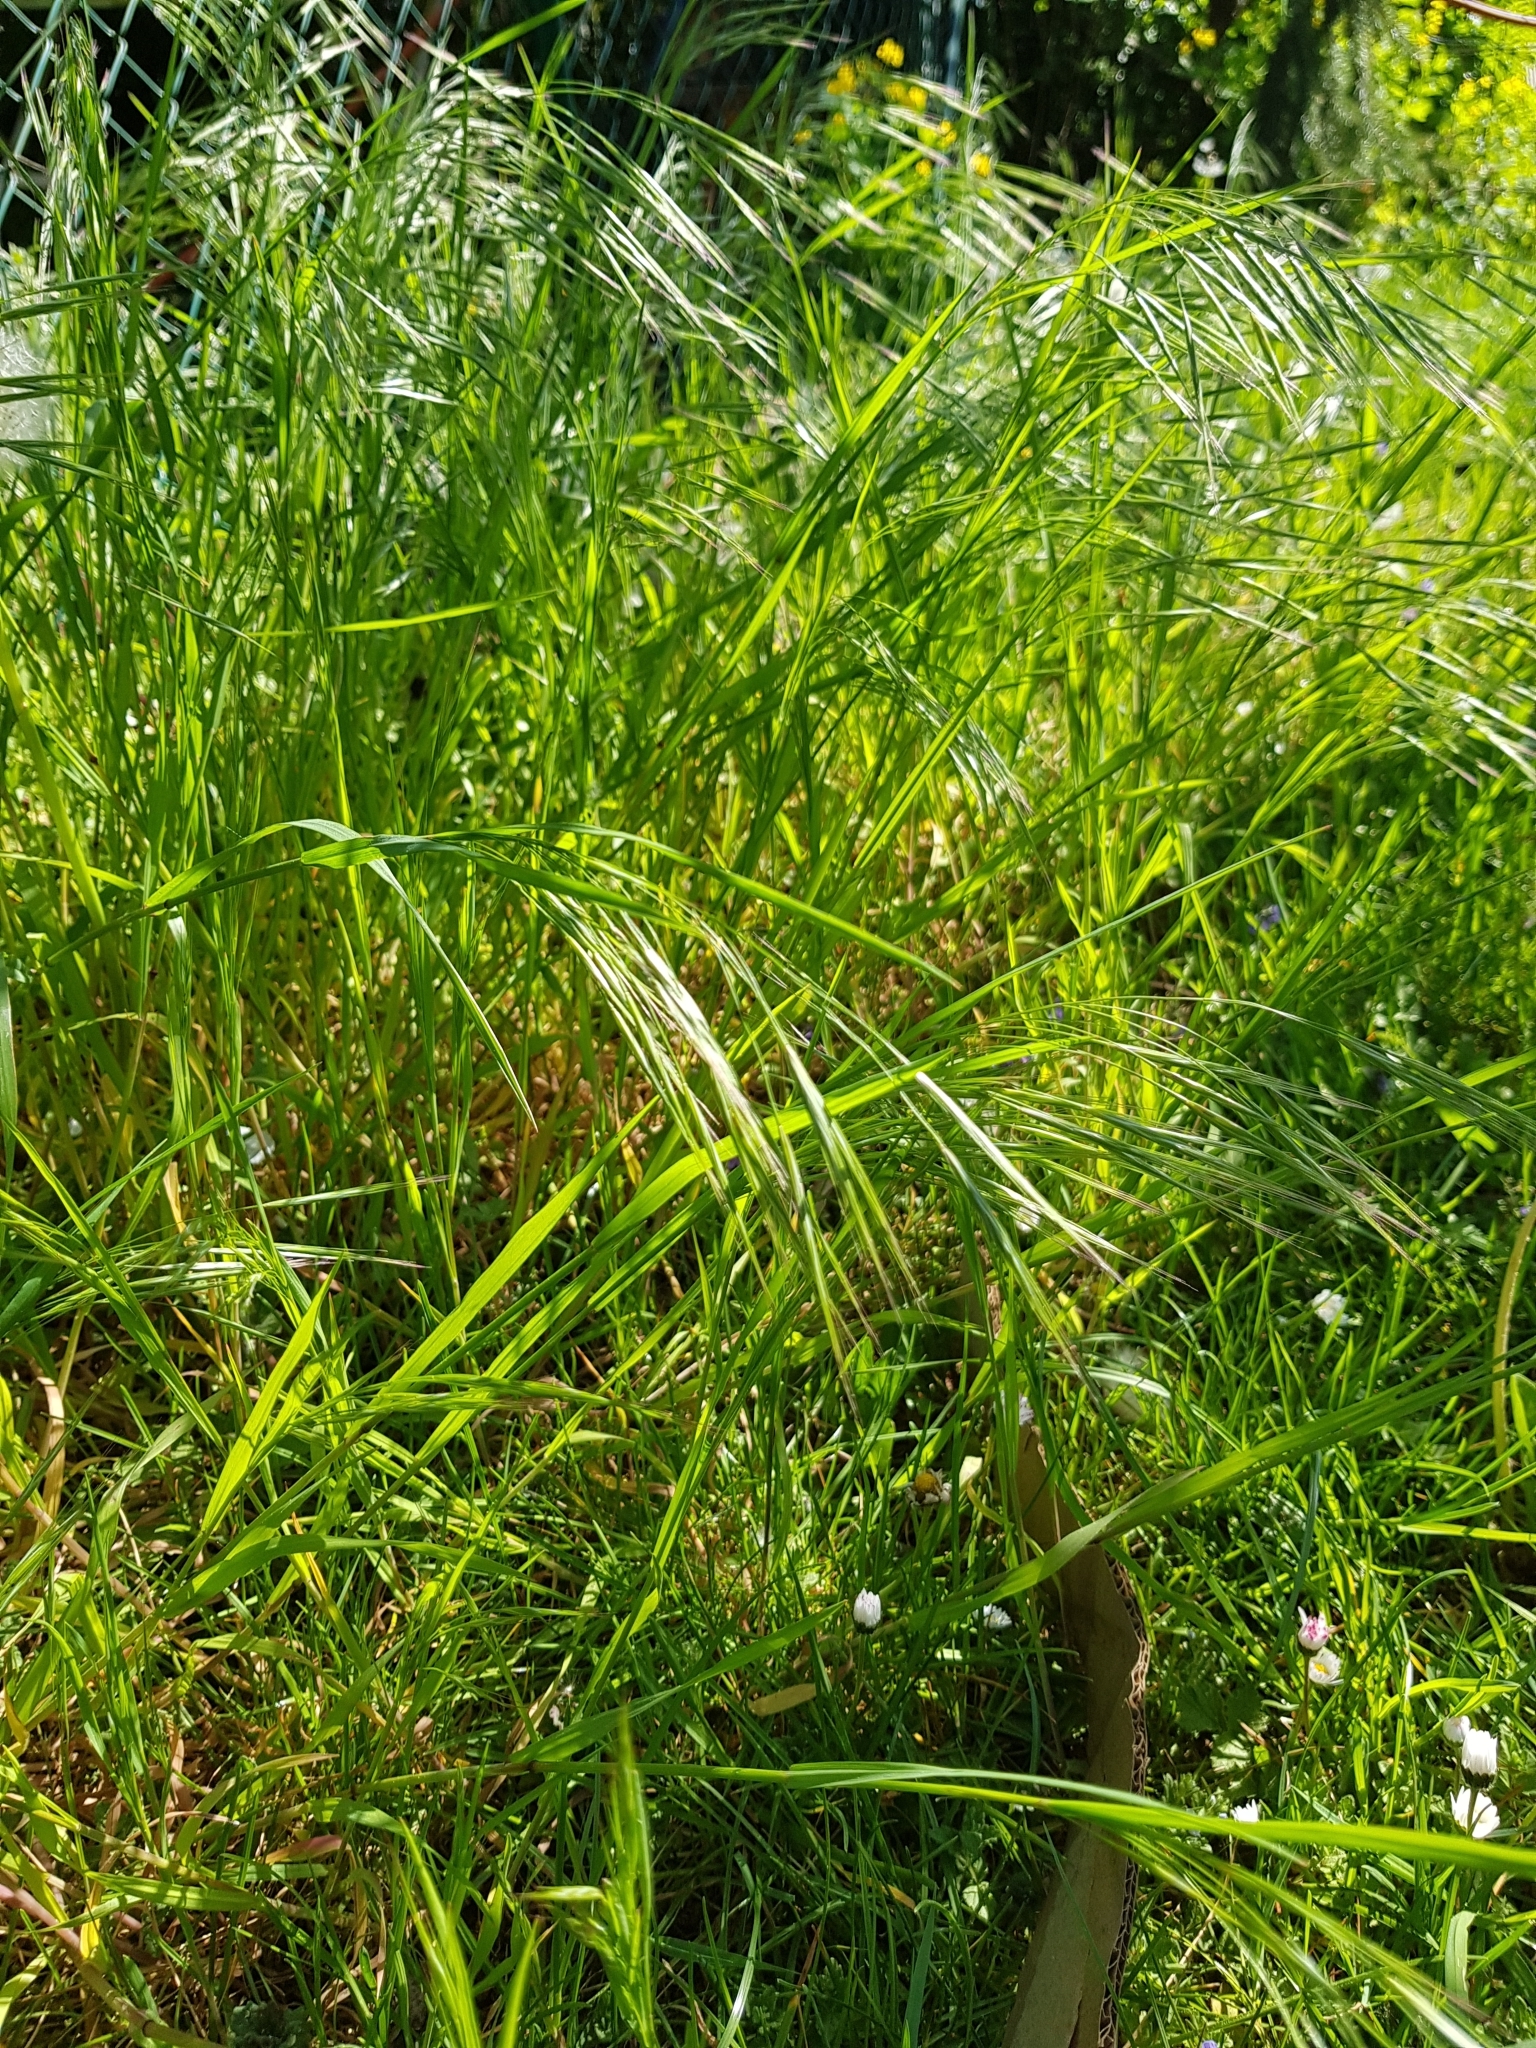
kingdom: Plantae
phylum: Tracheophyta
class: Liliopsida
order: Poales
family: Poaceae
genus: Bromus
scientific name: Bromus sterilis
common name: Poverty brome
